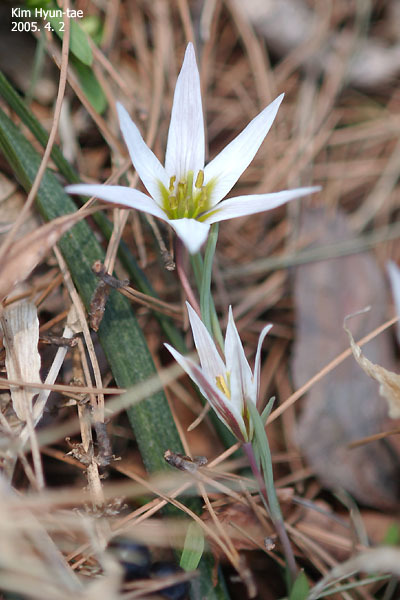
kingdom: Plantae
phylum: Tracheophyta
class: Liliopsida
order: Liliales
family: Liliaceae
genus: Amana
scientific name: Amana edulis
